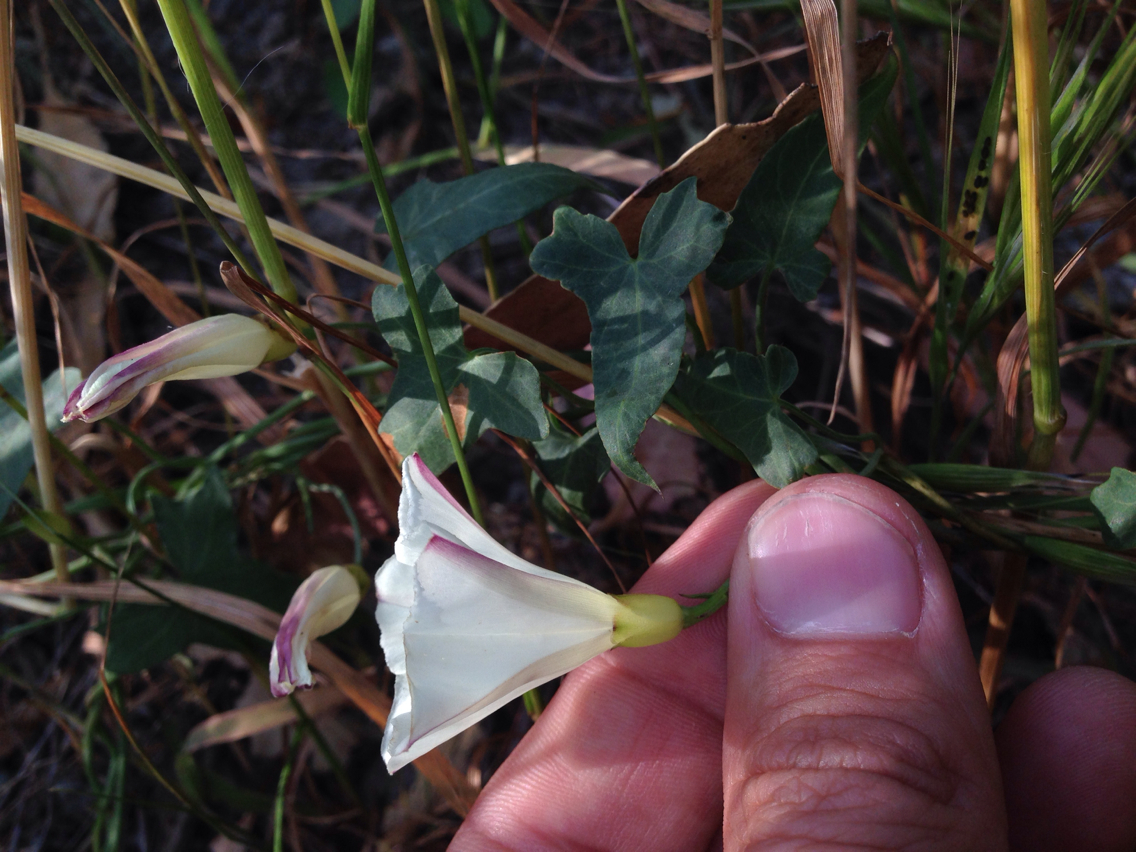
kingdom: Plantae
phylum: Tracheophyta
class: Magnoliopsida
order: Solanales
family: Convolvulaceae
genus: Calystegia
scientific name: Calystegia purpurata
